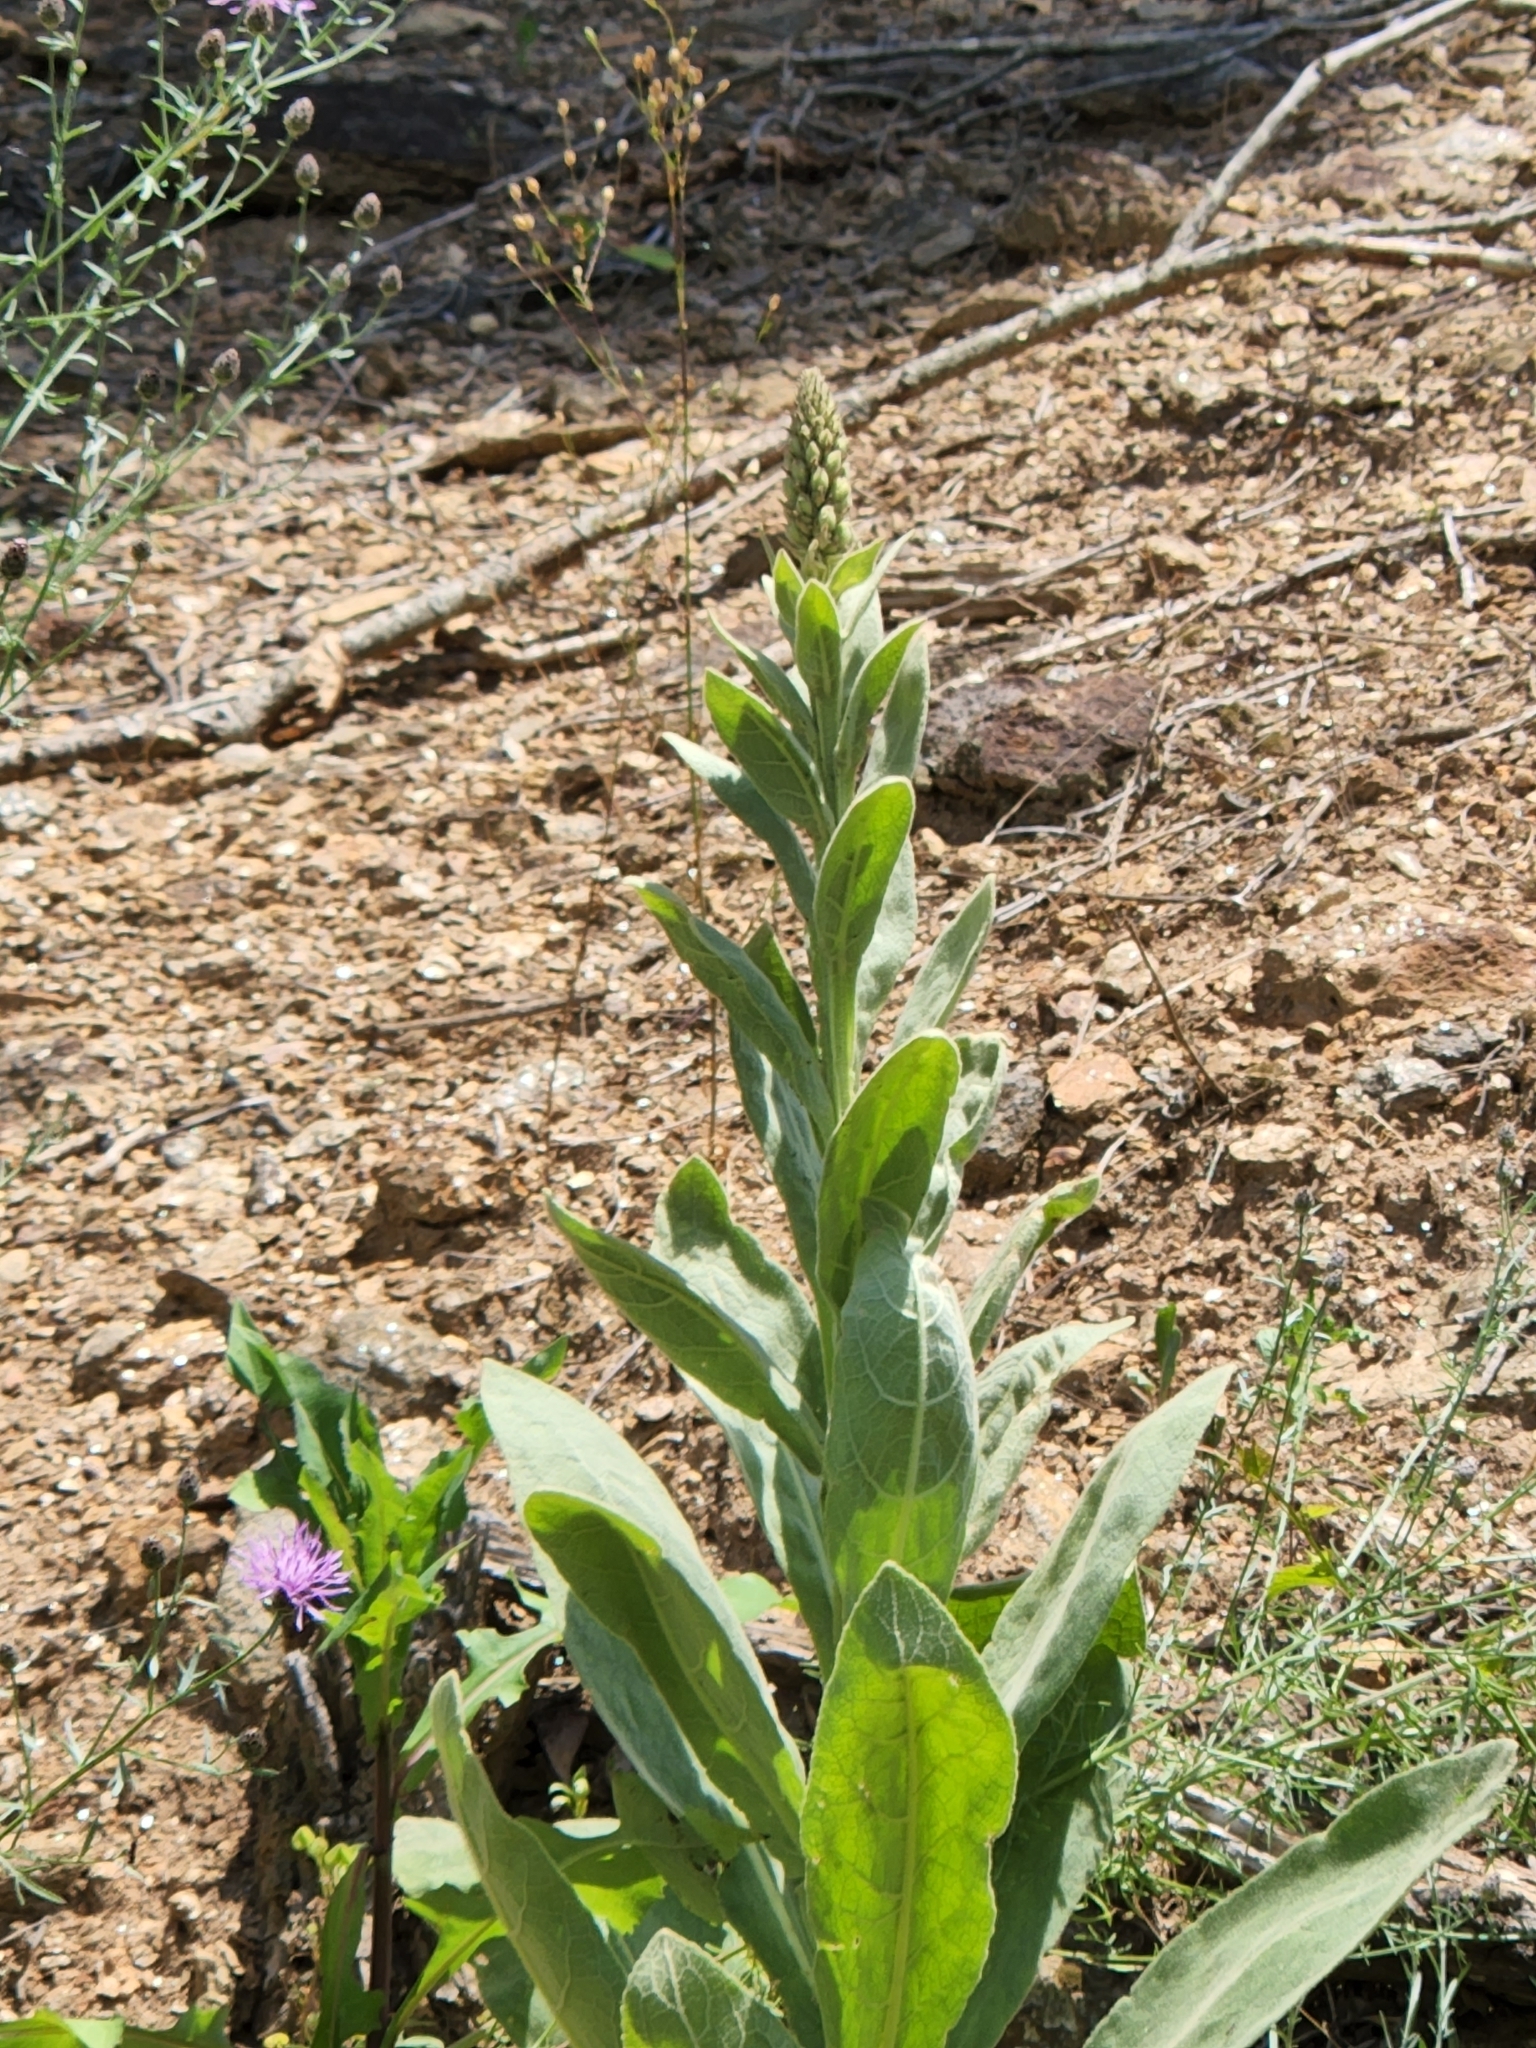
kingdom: Plantae
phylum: Tracheophyta
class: Magnoliopsida
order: Lamiales
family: Scrophulariaceae
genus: Verbascum
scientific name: Verbascum thapsus
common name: Common mullein
